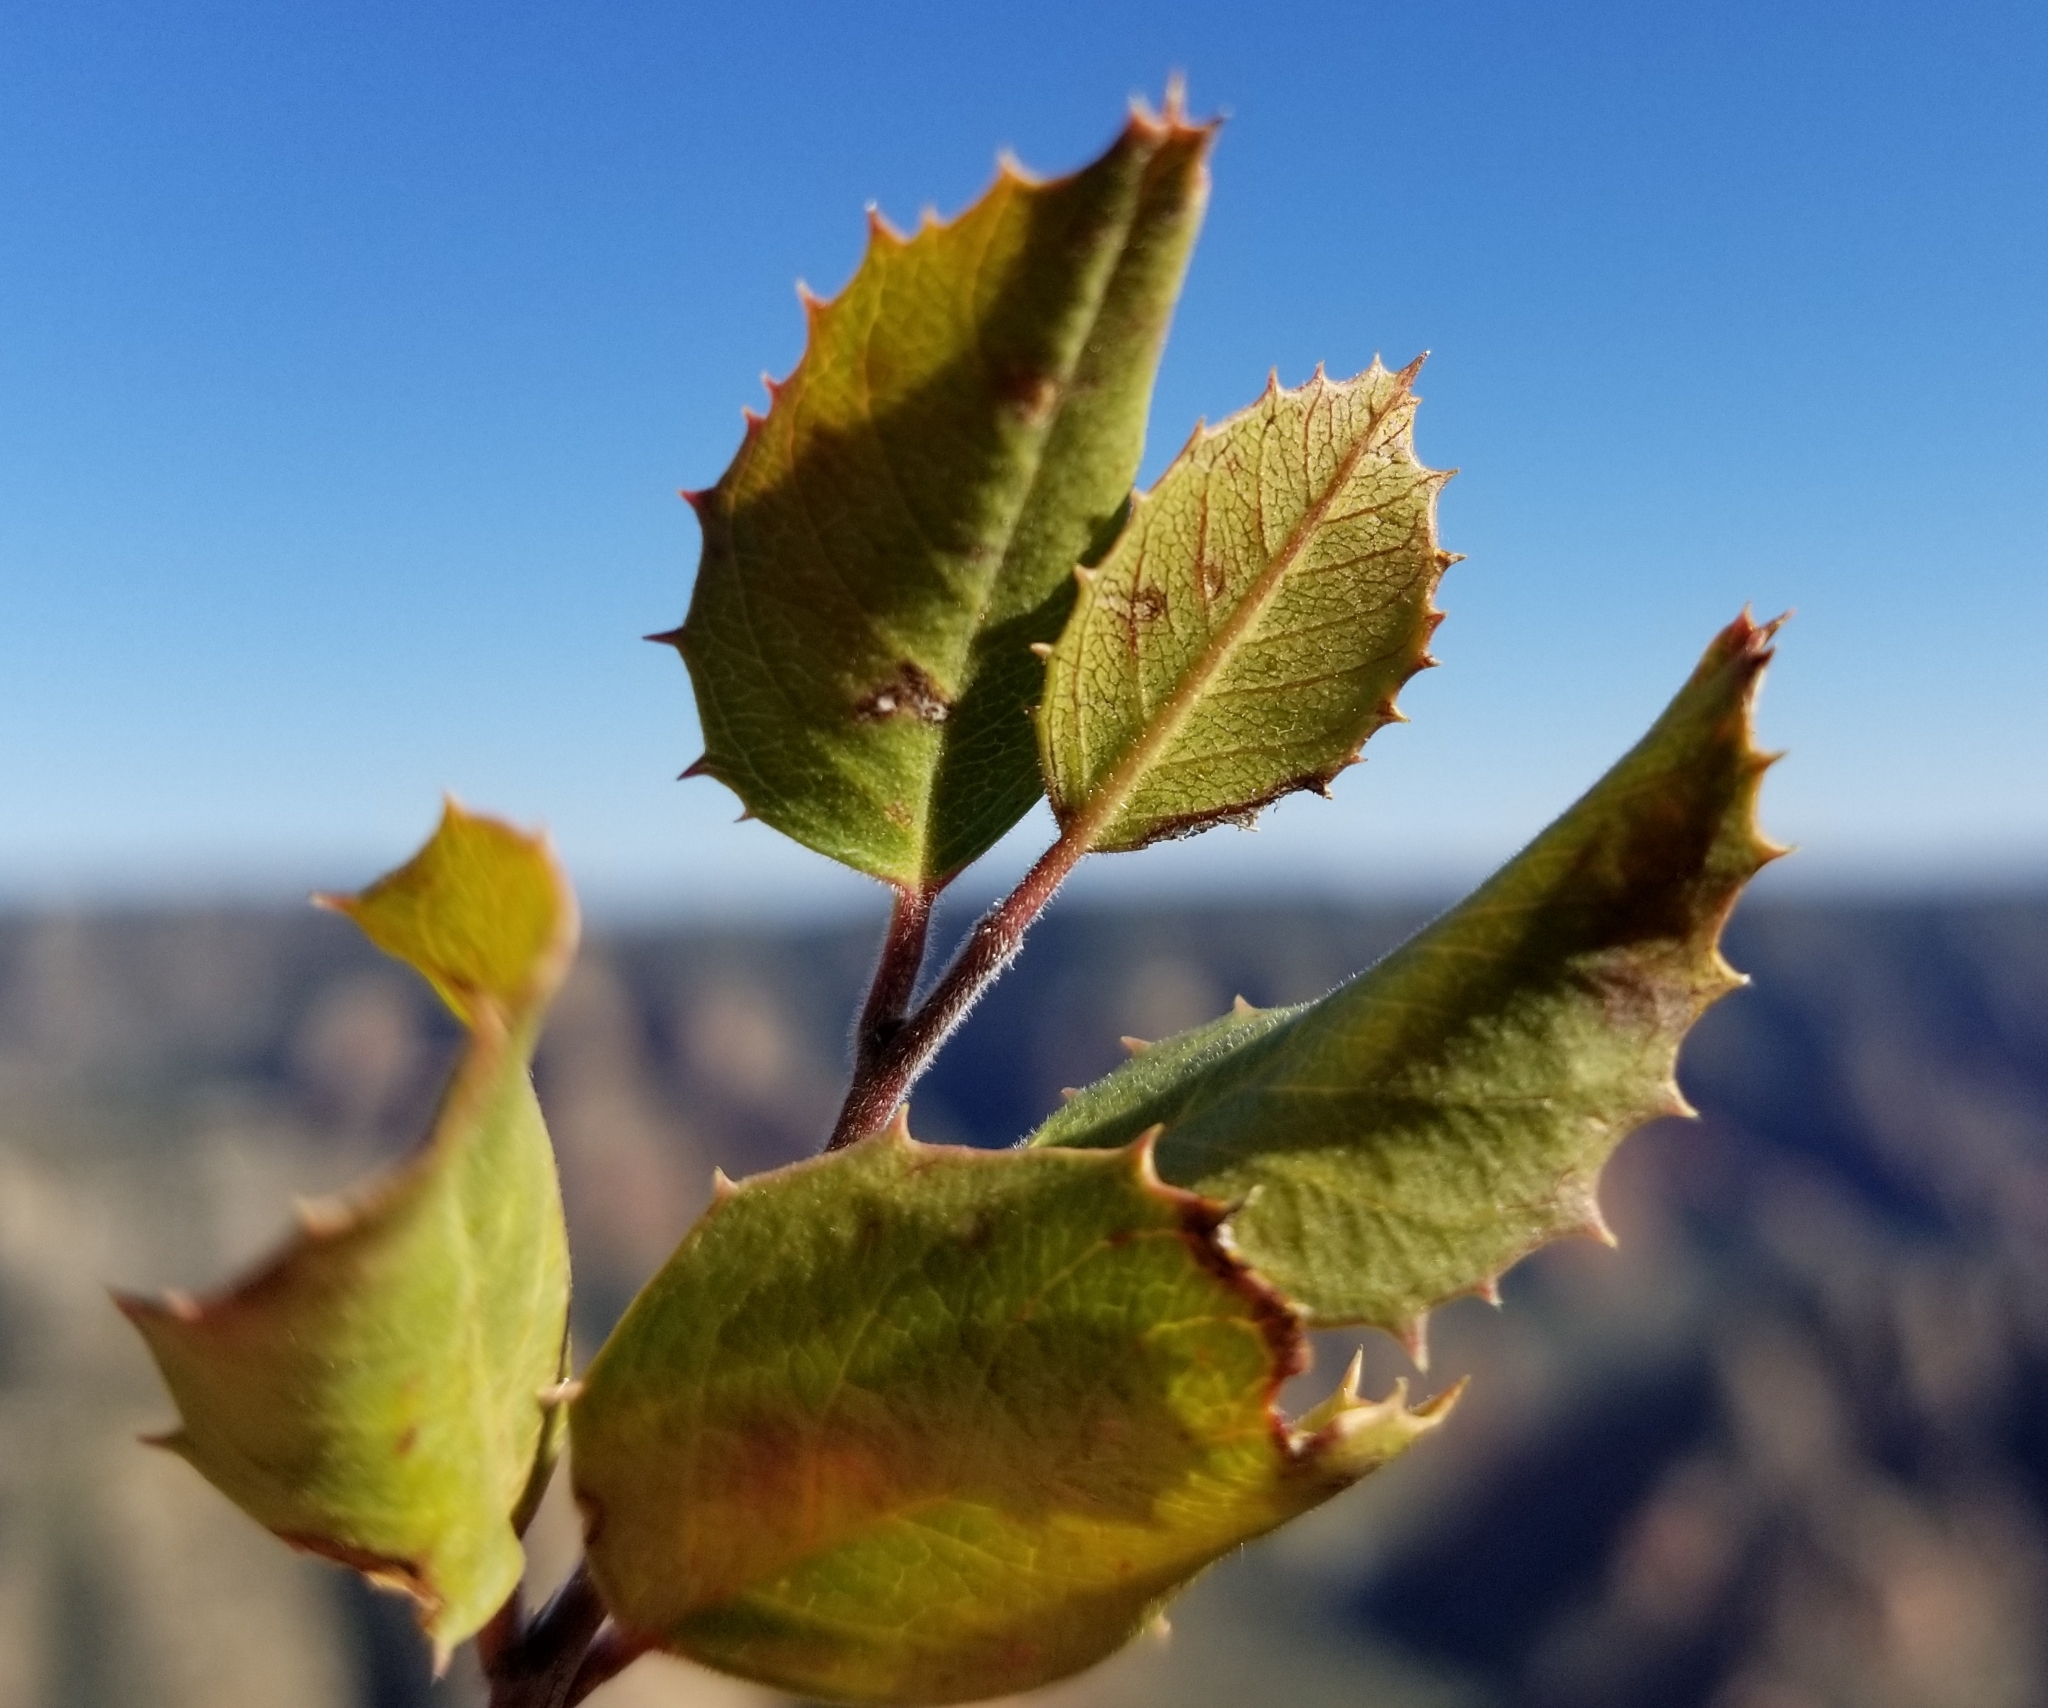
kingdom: Plantae
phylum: Tracheophyta
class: Magnoliopsida
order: Rosales
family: Rhamnaceae
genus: Endotropis
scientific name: Endotropis crocea
